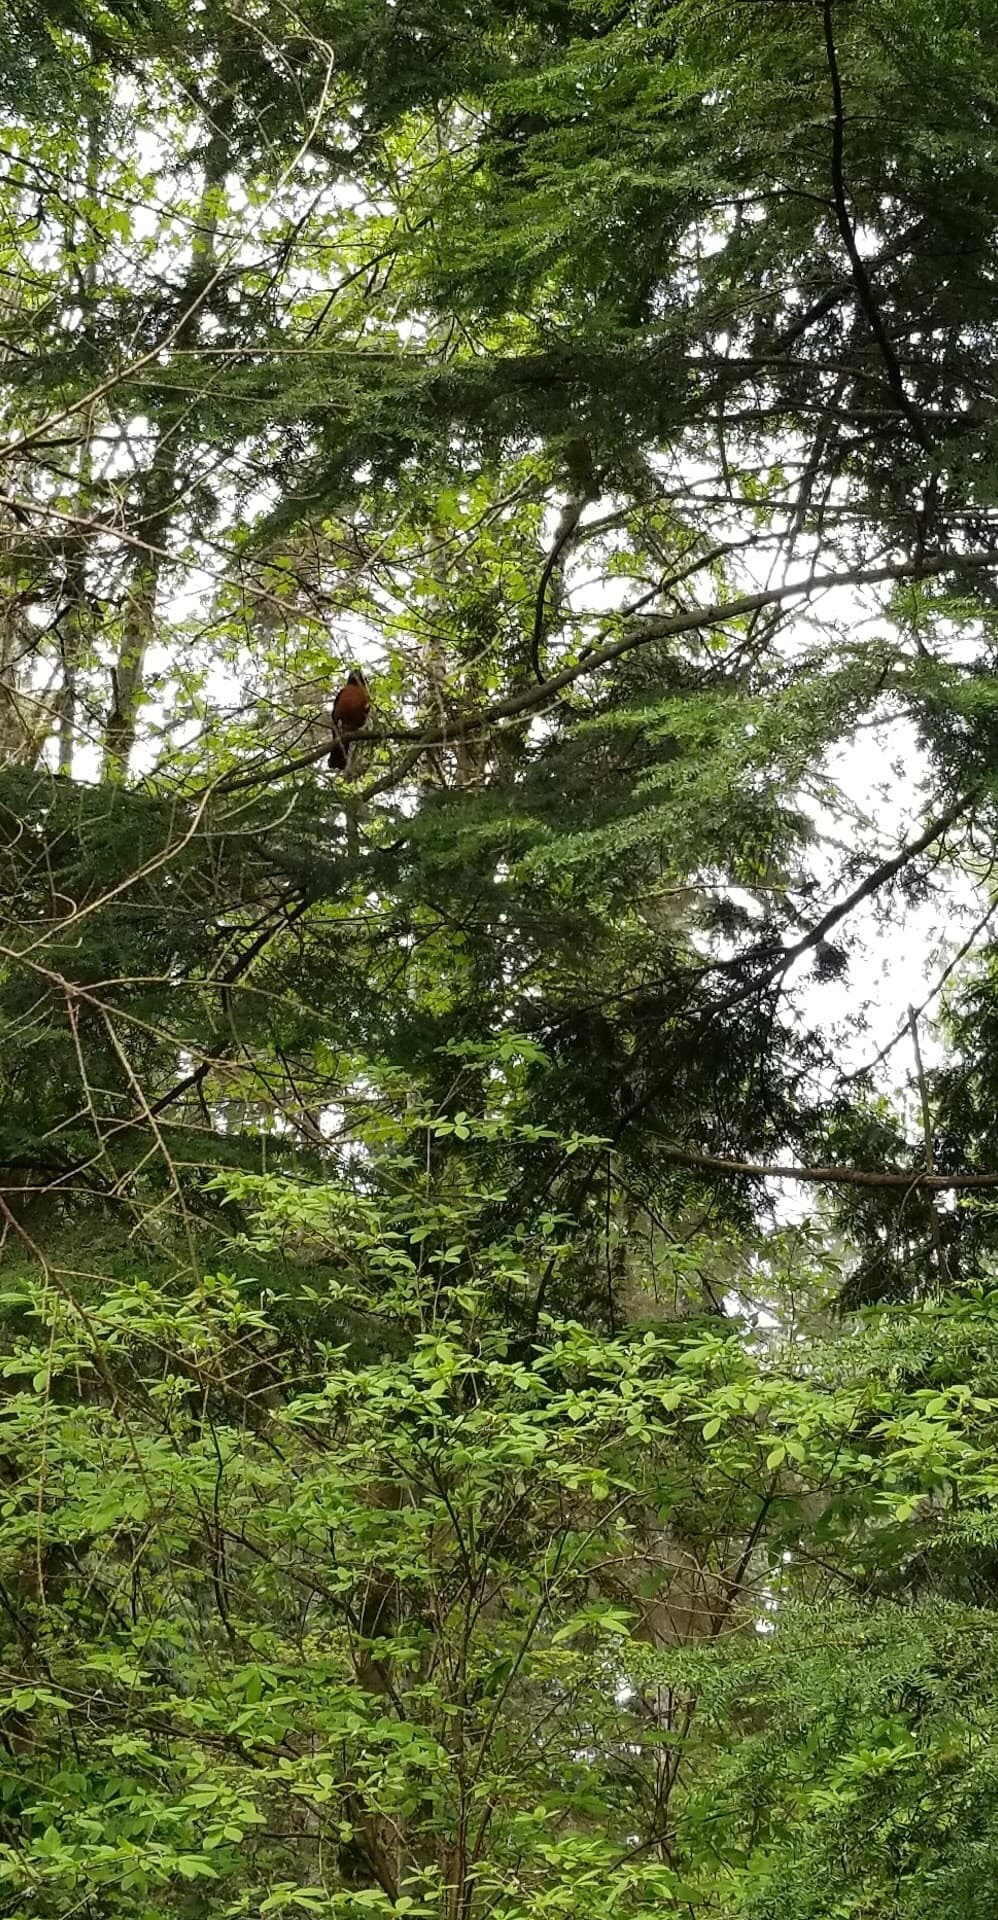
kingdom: Animalia
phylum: Chordata
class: Aves
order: Passeriformes
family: Turdidae
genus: Turdus
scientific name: Turdus migratorius
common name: American robin
